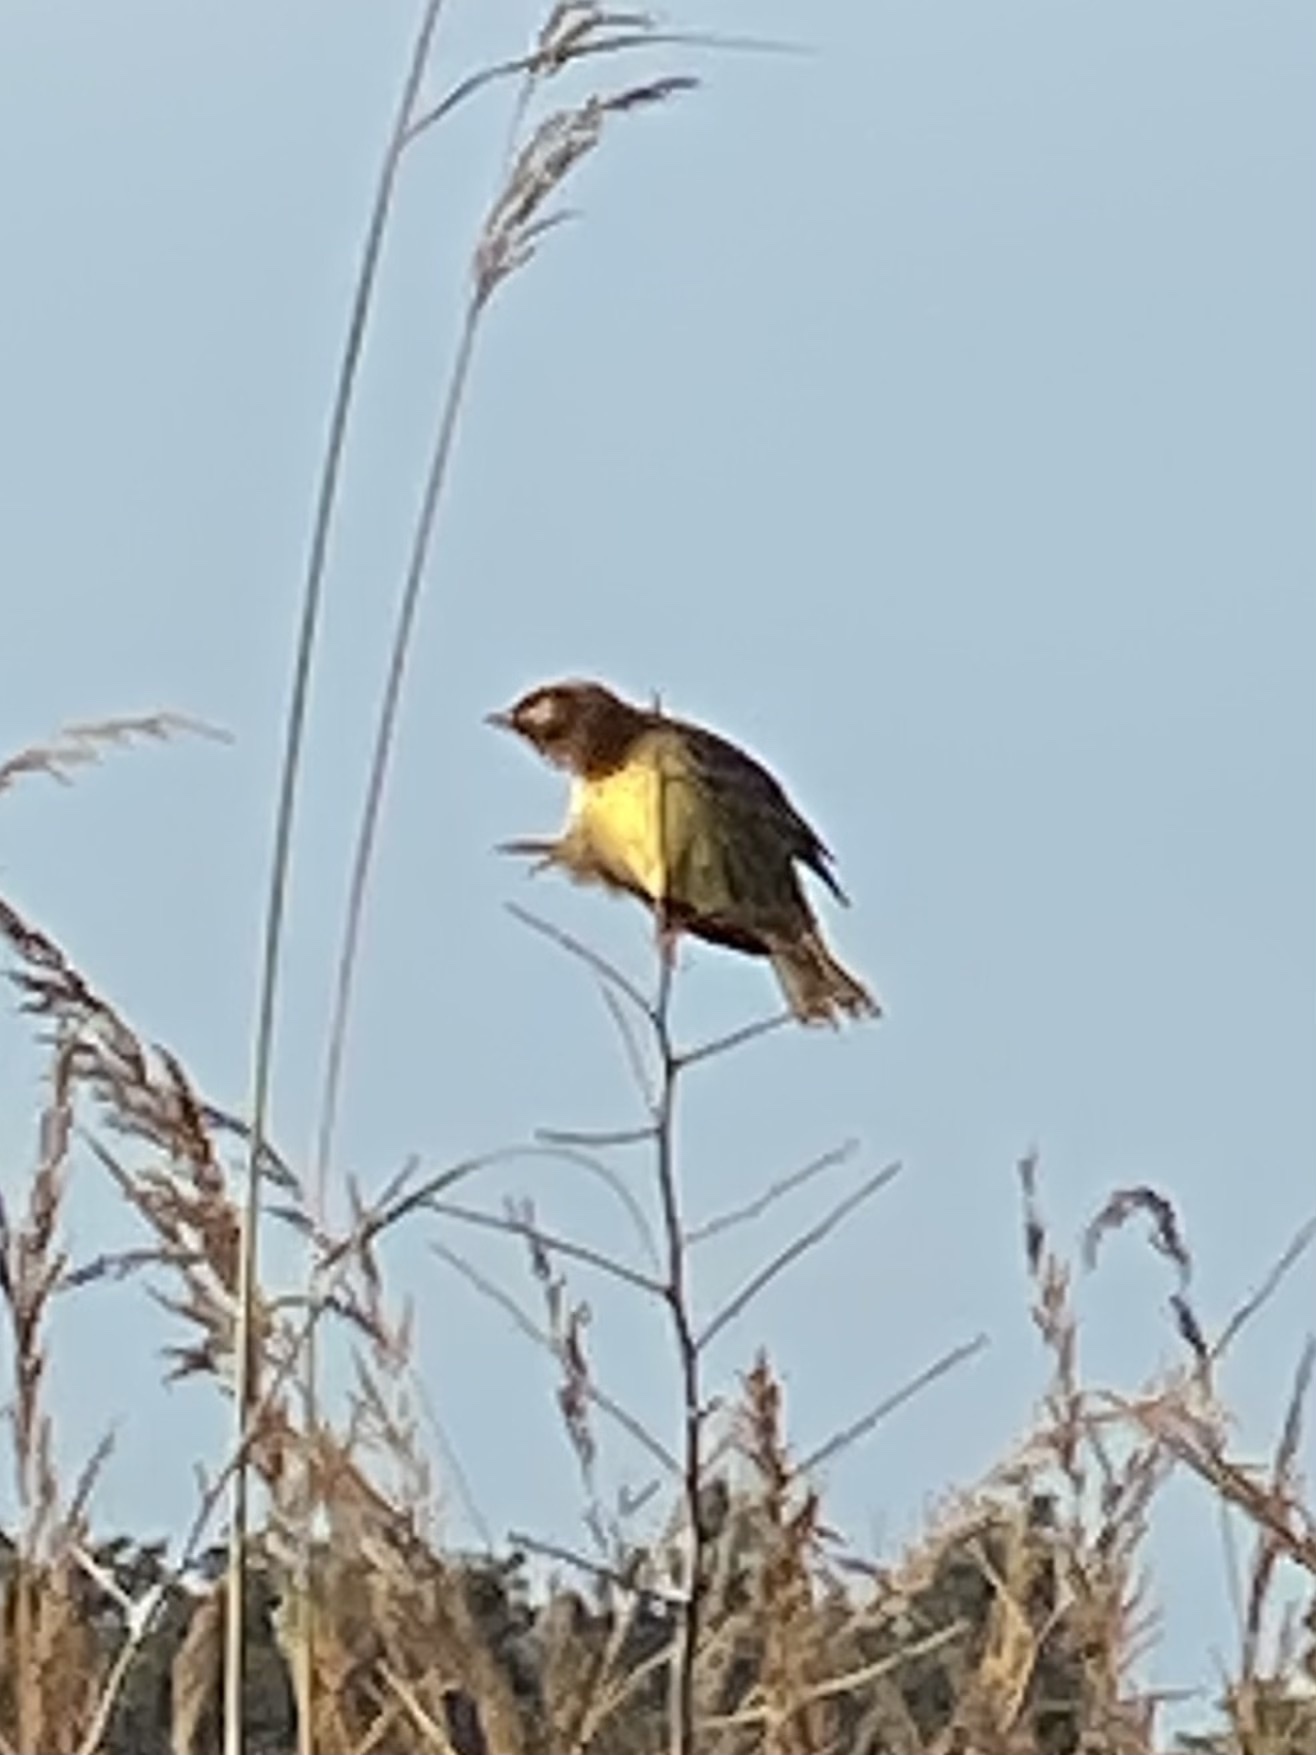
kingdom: Animalia
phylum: Chordata
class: Aves
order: Passeriformes
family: Icteridae
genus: Dolichonyx
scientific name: Dolichonyx oryzivorus
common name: Bobolink
